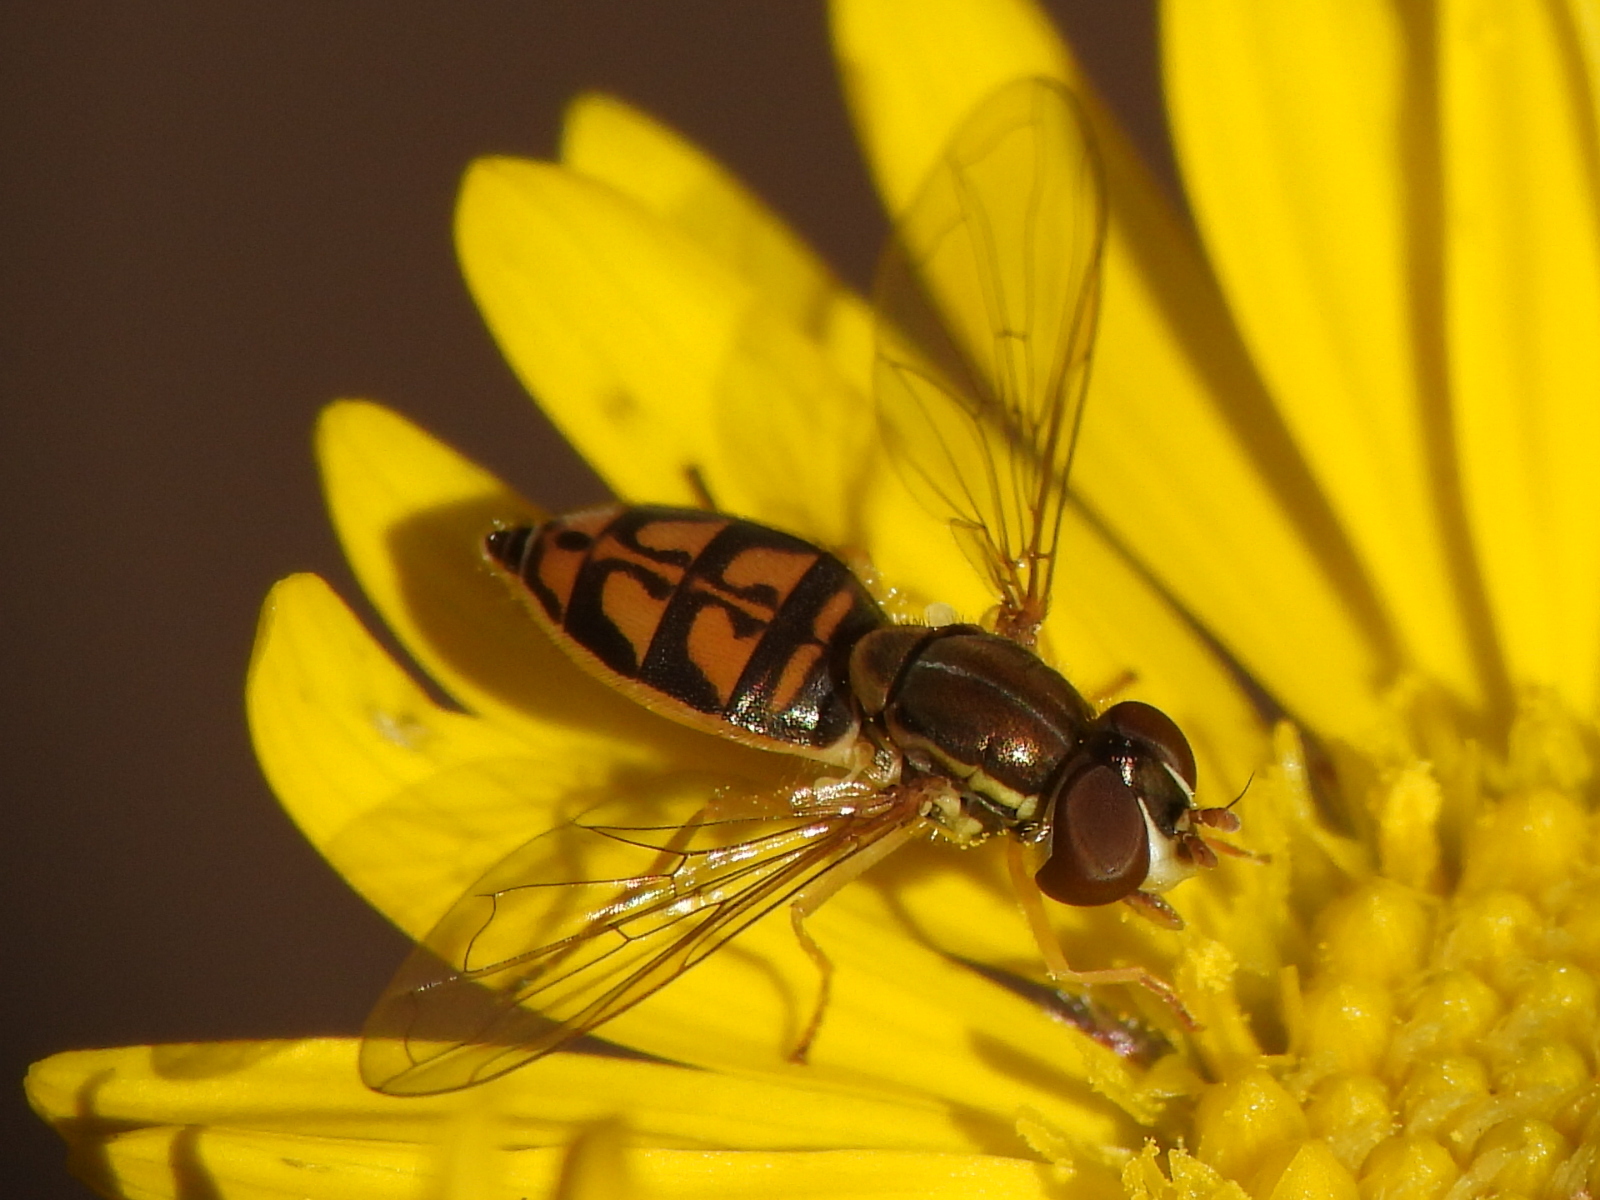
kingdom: Animalia
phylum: Arthropoda
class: Insecta
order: Diptera
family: Syrphidae
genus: Toxomerus
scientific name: Toxomerus marginatus
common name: Syrphid fly
